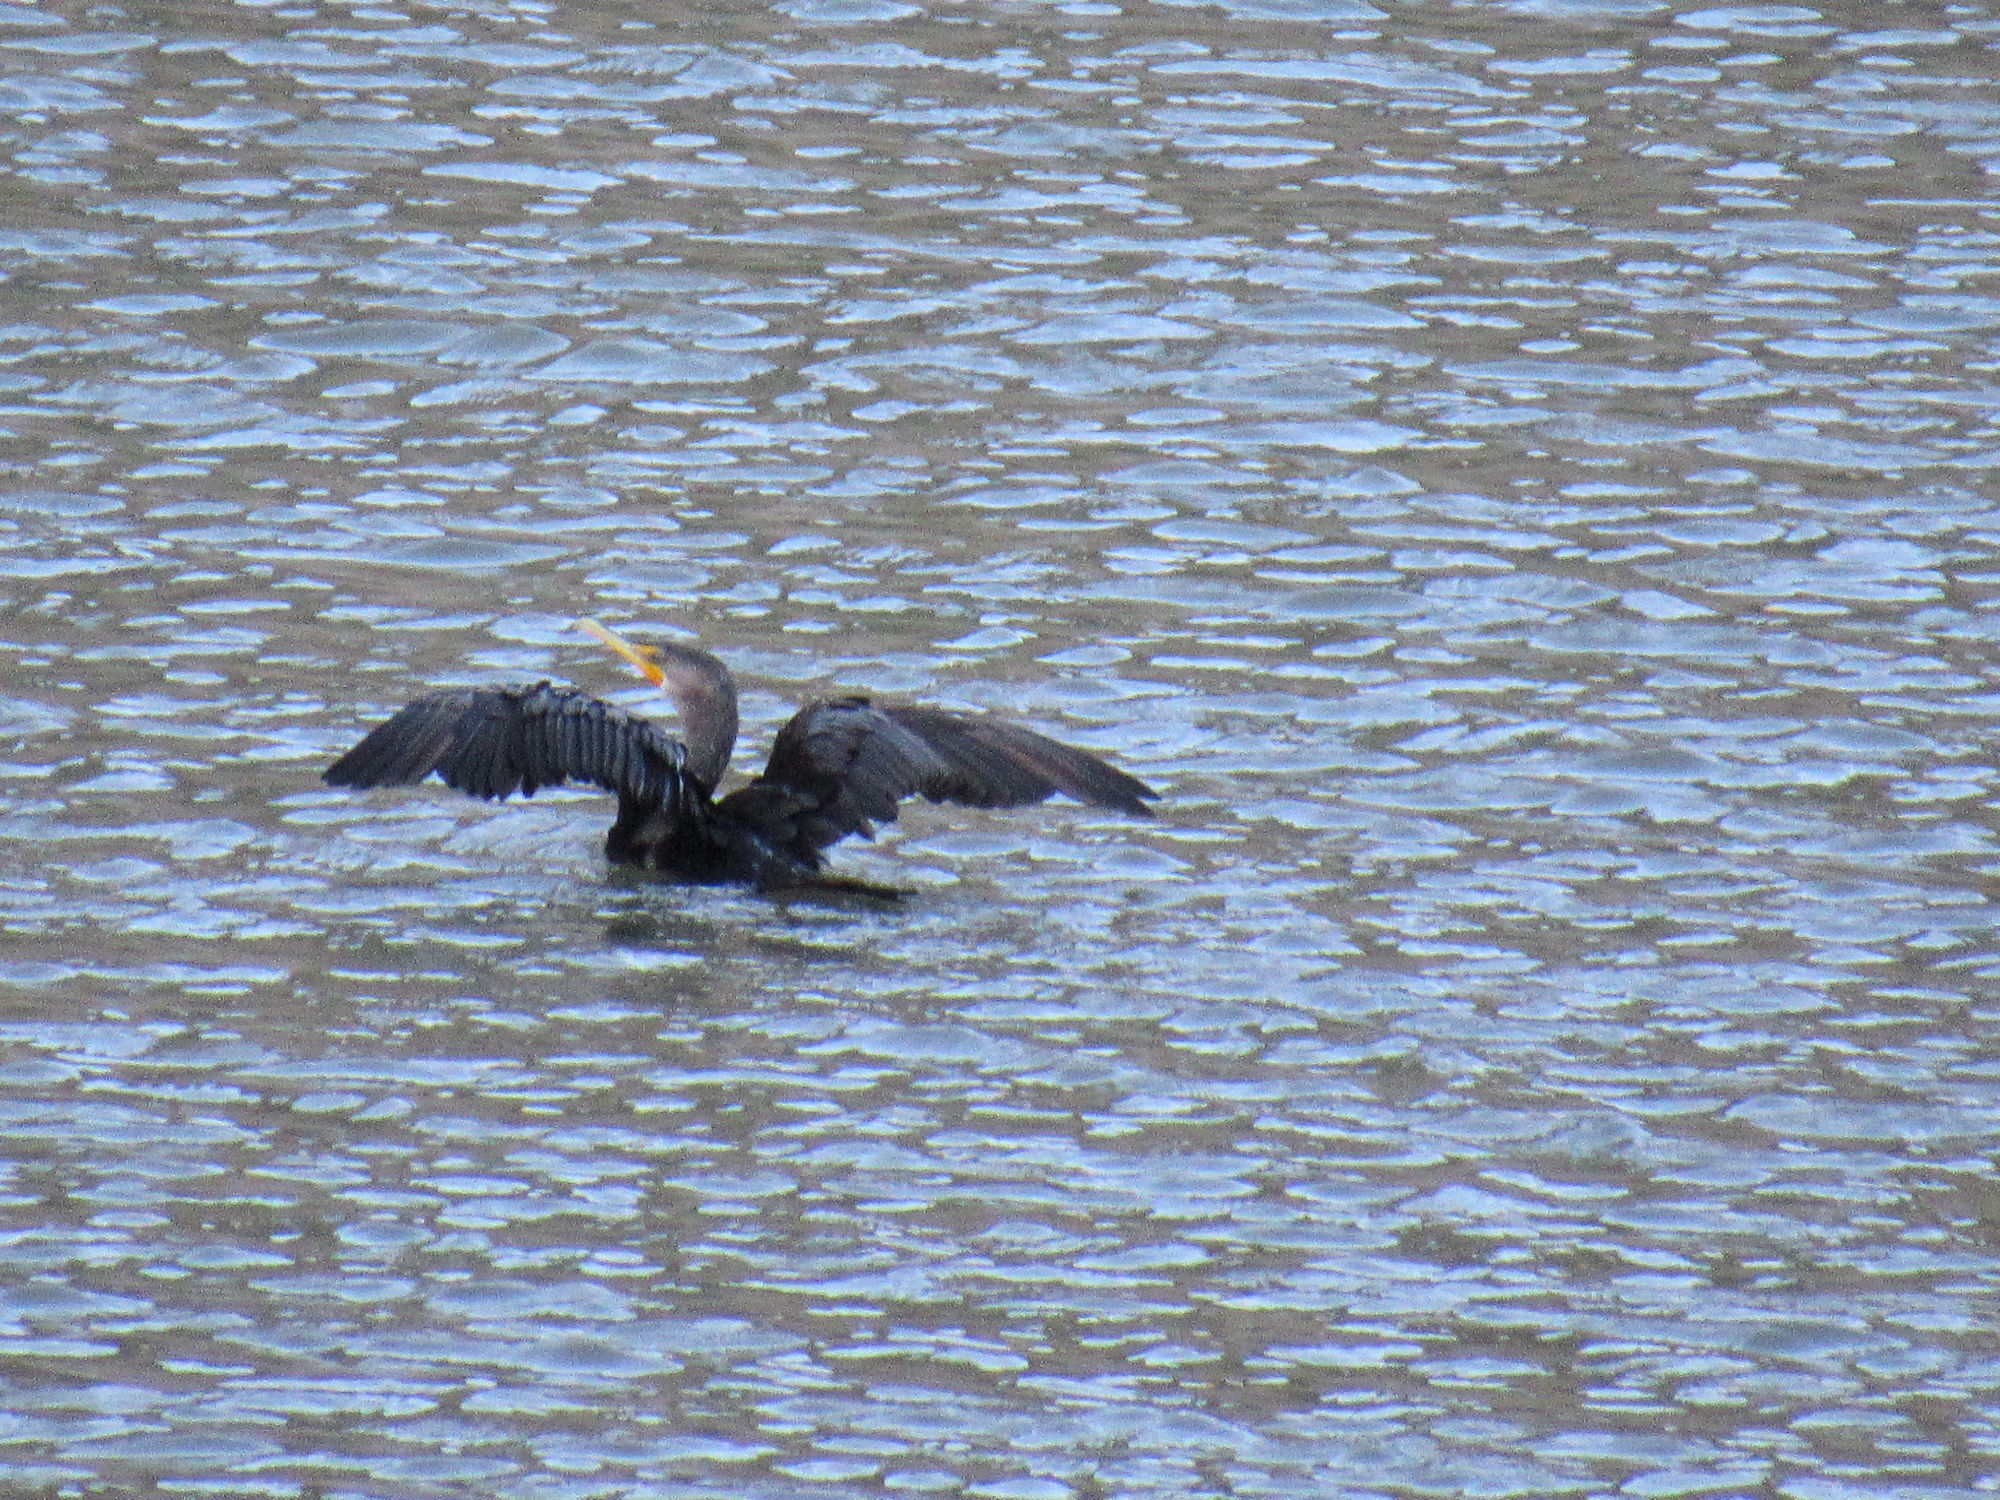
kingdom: Animalia
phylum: Chordata
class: Aves
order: Suliformes
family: Phalacrocoracidae
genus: Phalacrocorax
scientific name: Phalacrocorax auritus
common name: Double-crested cormorant
